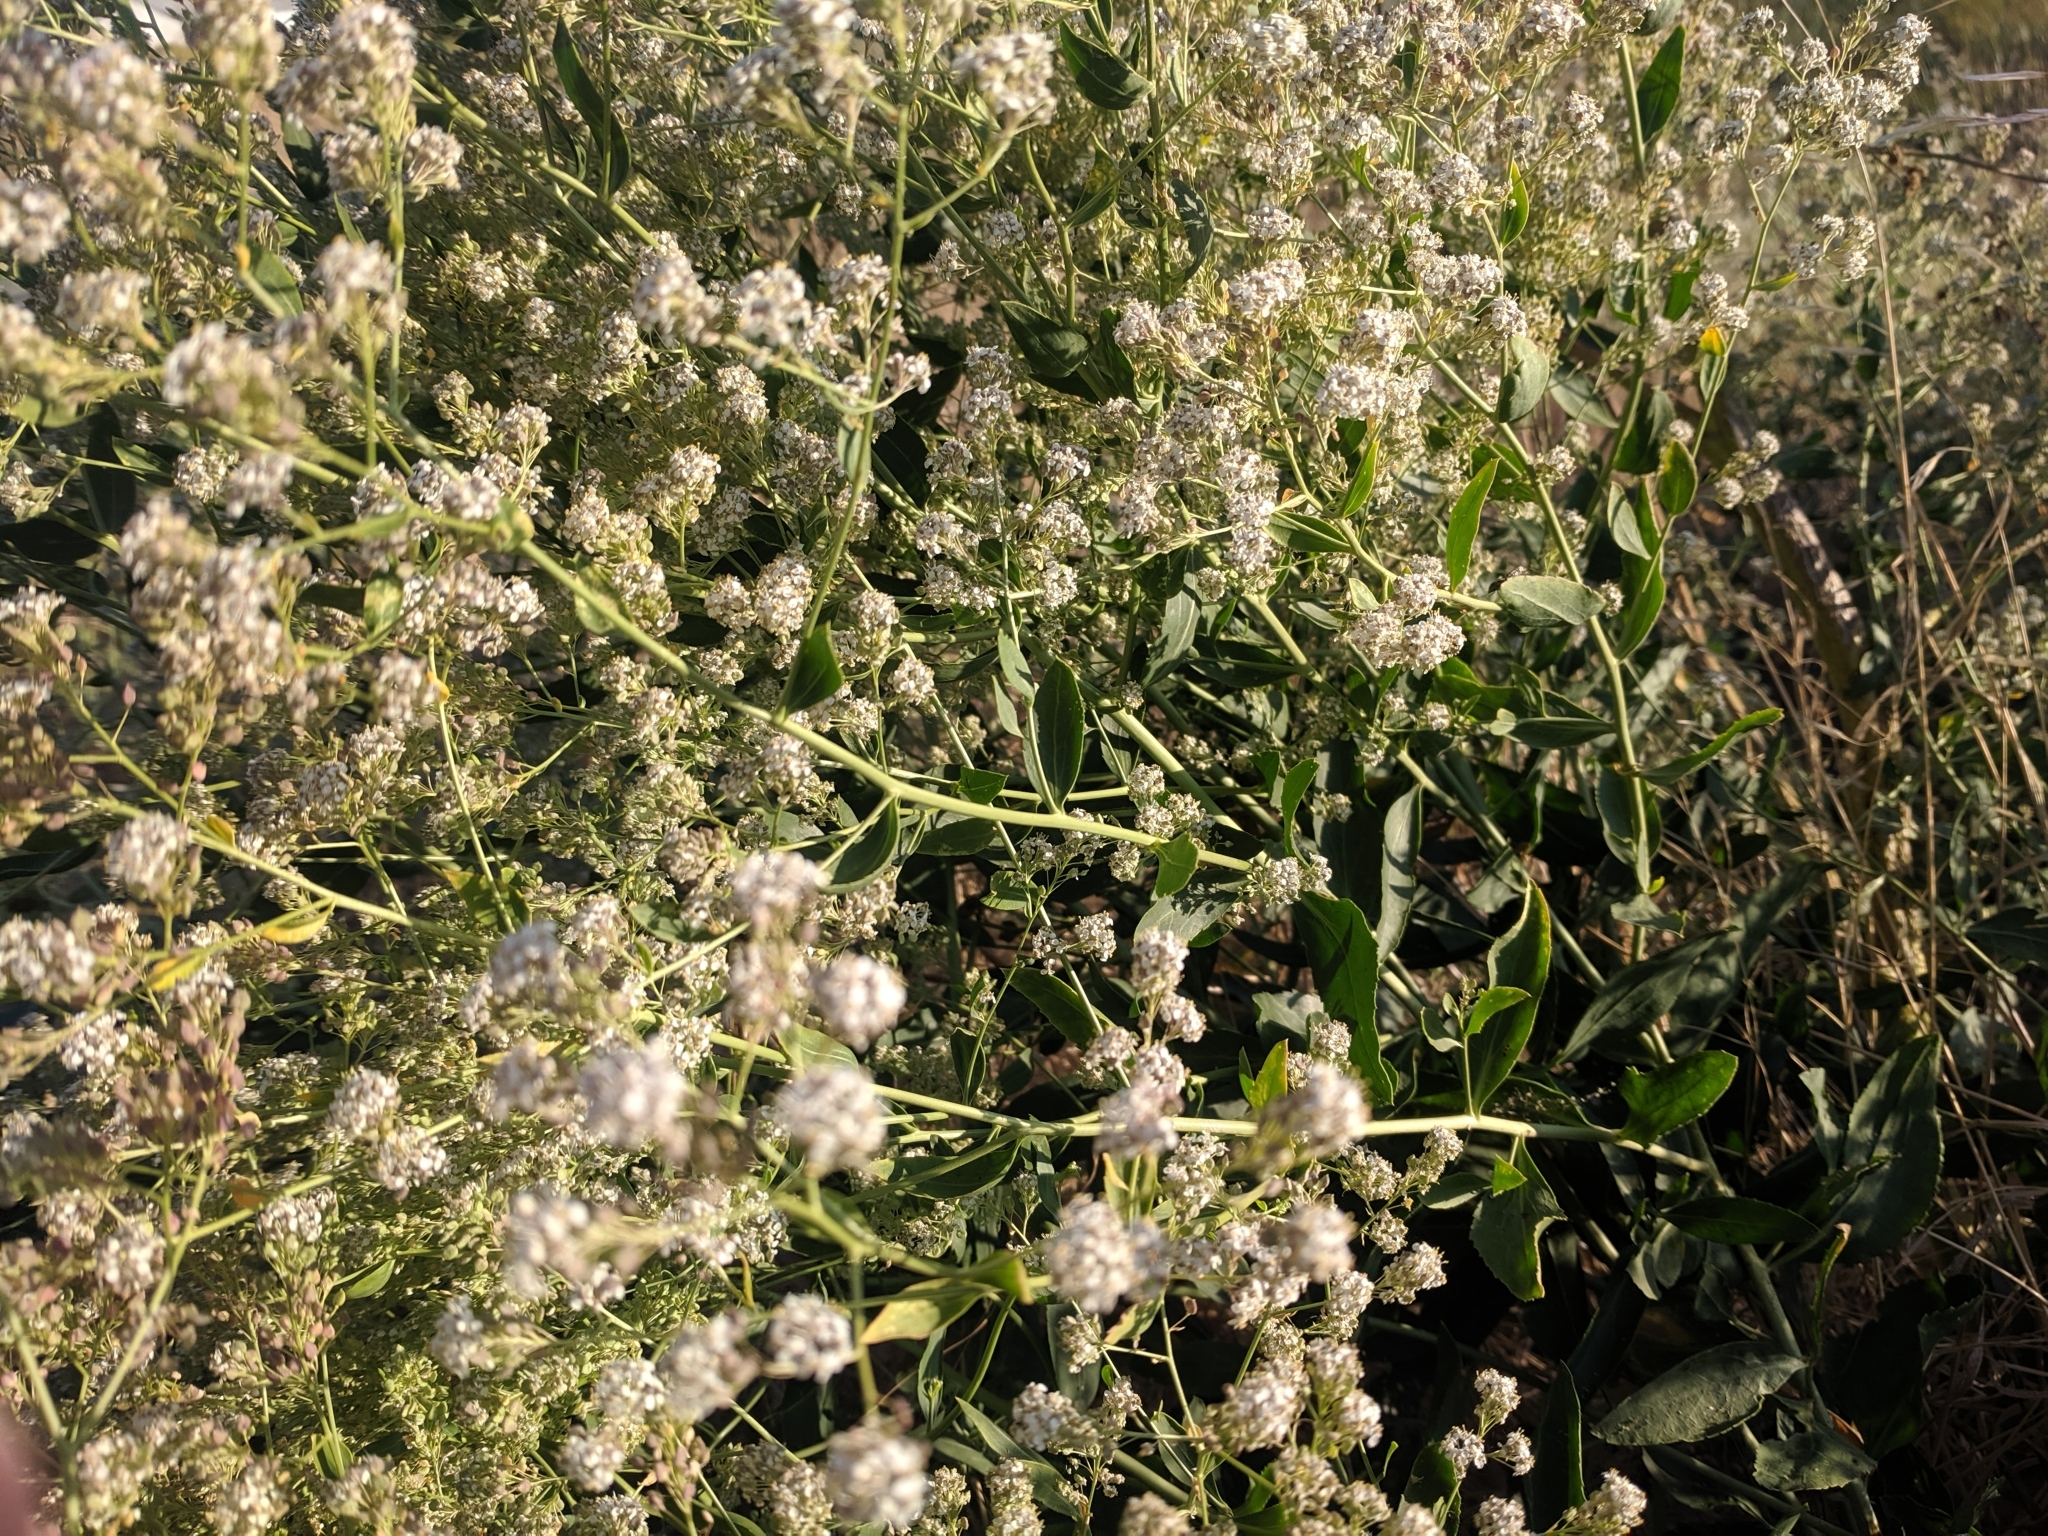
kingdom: Plantae
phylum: Tracheophyta
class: Magnoliopsida
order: Brassicales
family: Brassicaceae
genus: Lepidium
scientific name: Lepidium latifolium
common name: Dittander
